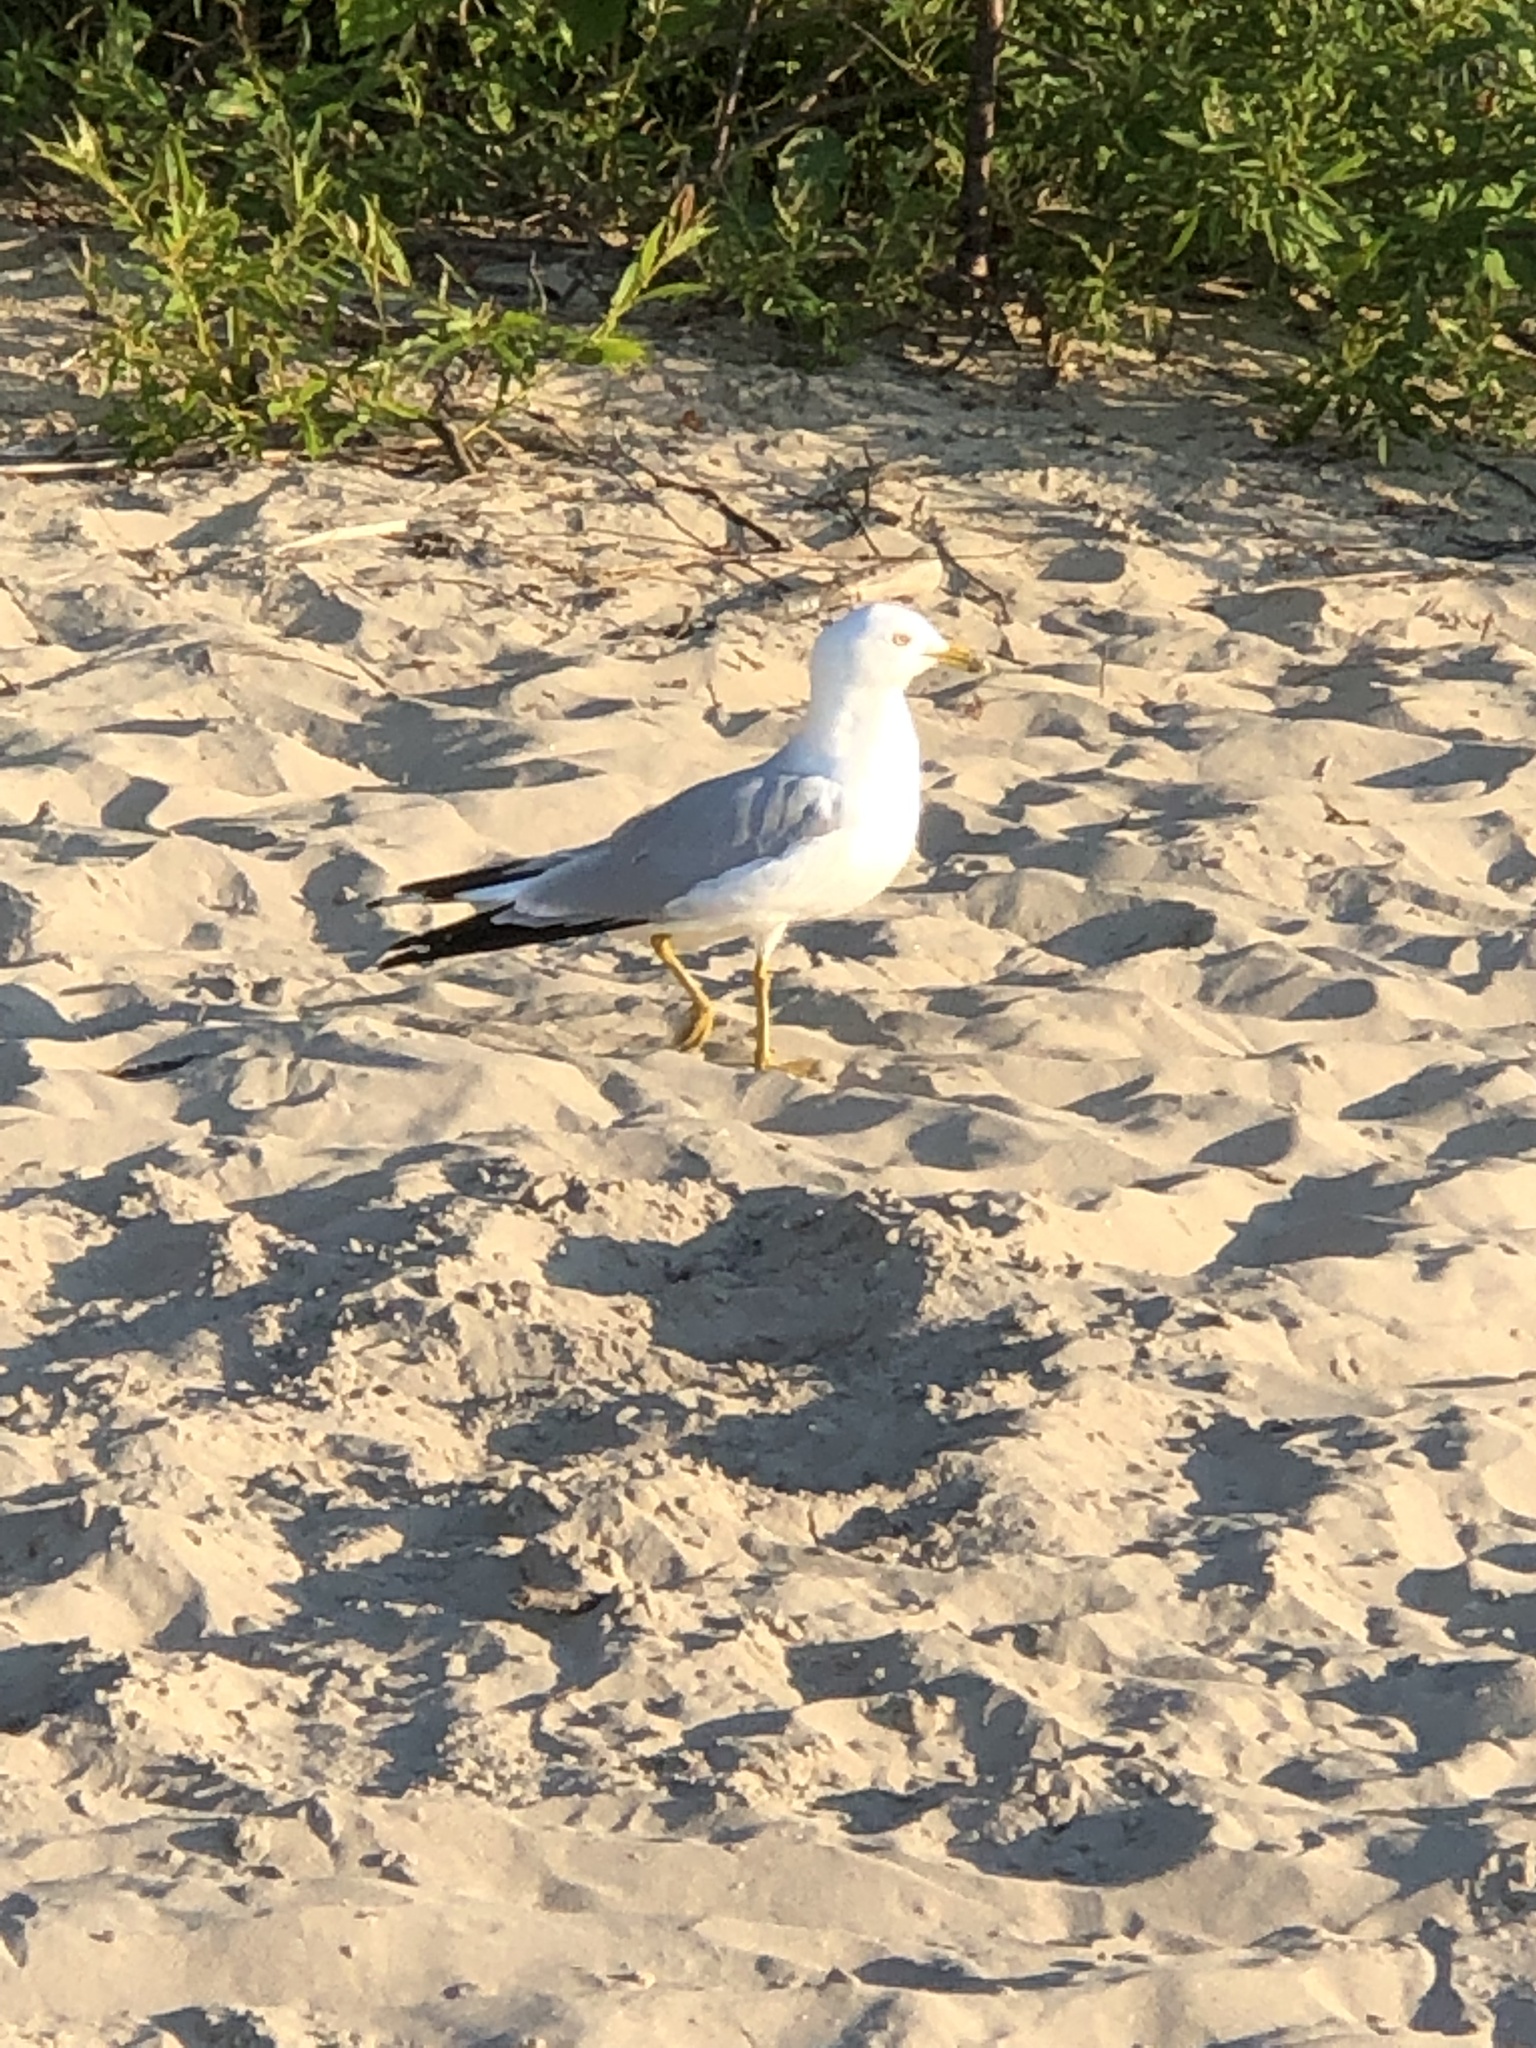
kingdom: Animalia
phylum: Chordata
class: Aves
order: Charadriiformes
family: Laridae
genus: Larus
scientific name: Larus delawarensis
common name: Ring-billed gull
